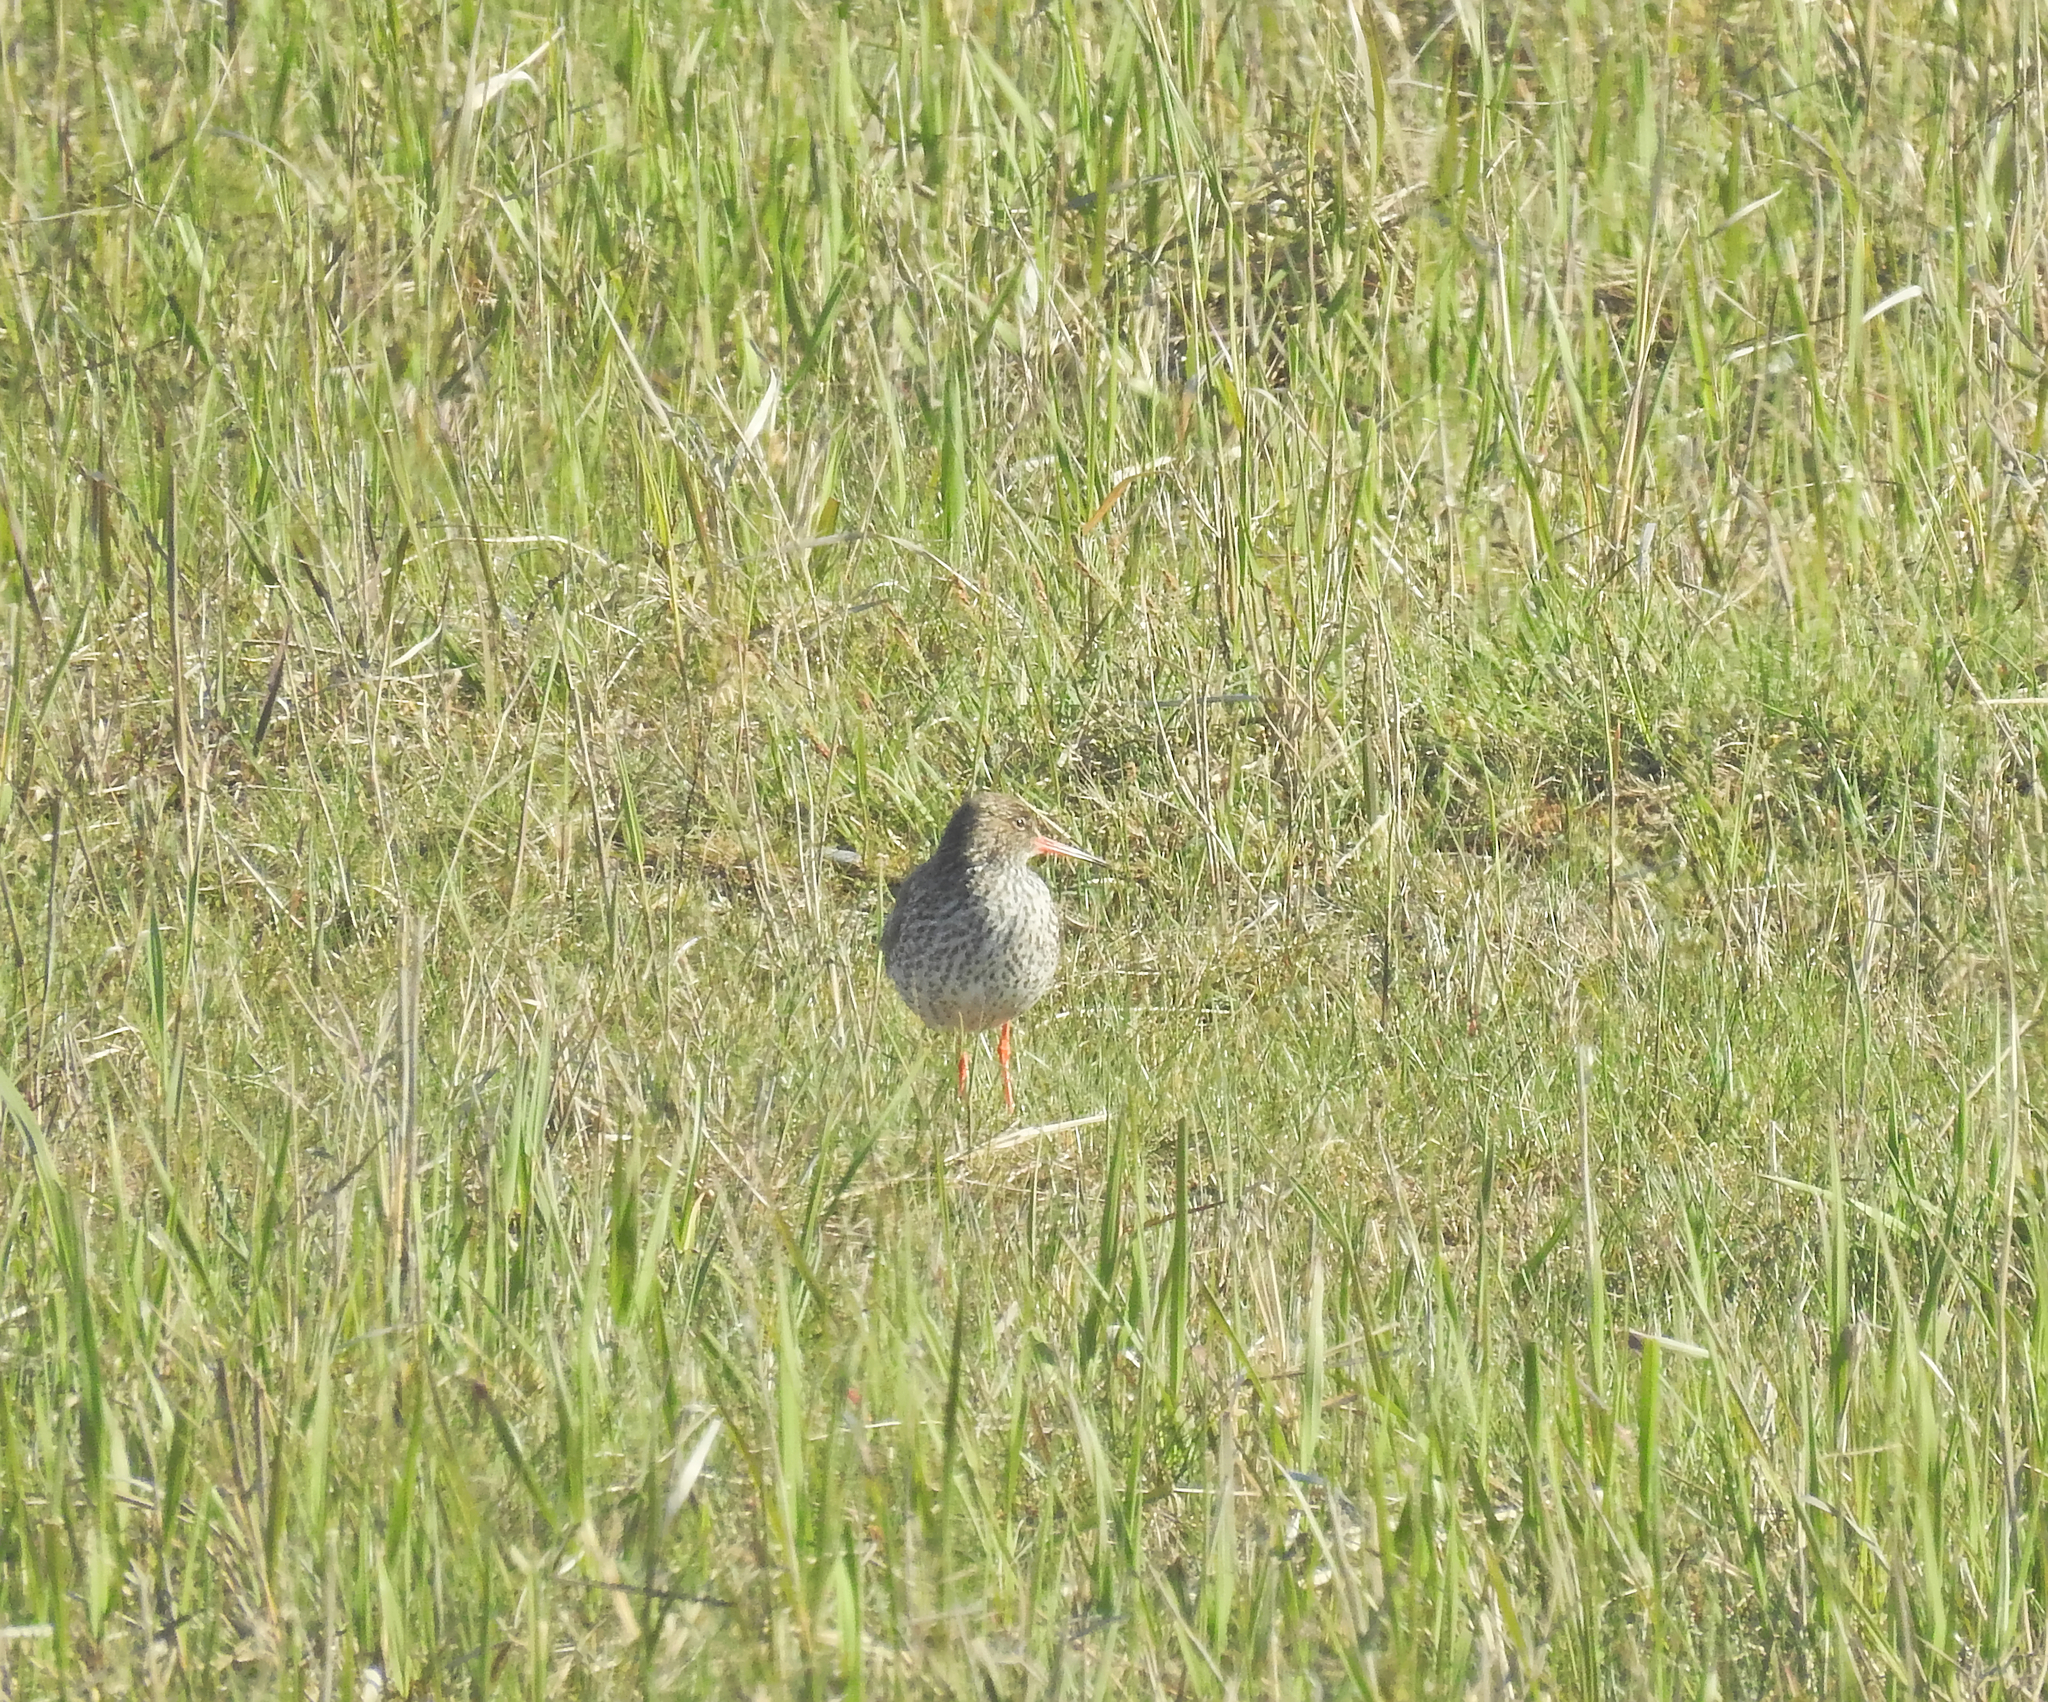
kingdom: Animalia
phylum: Chordata
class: Aves
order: Charadriiformes
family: Scolopacidae
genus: Tringa
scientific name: Tringa totanus
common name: Common redshank
